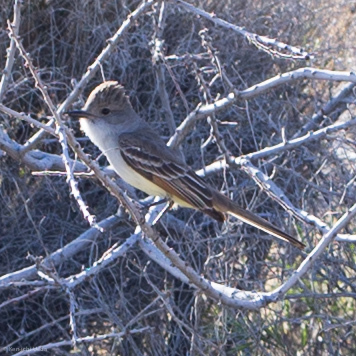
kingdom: Animalia
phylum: Chordata
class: Aves
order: Passeriformes
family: Tyrannidae
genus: Myiarchus
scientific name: Myiarchus cinerascens
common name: Ash-throated flycatcher
